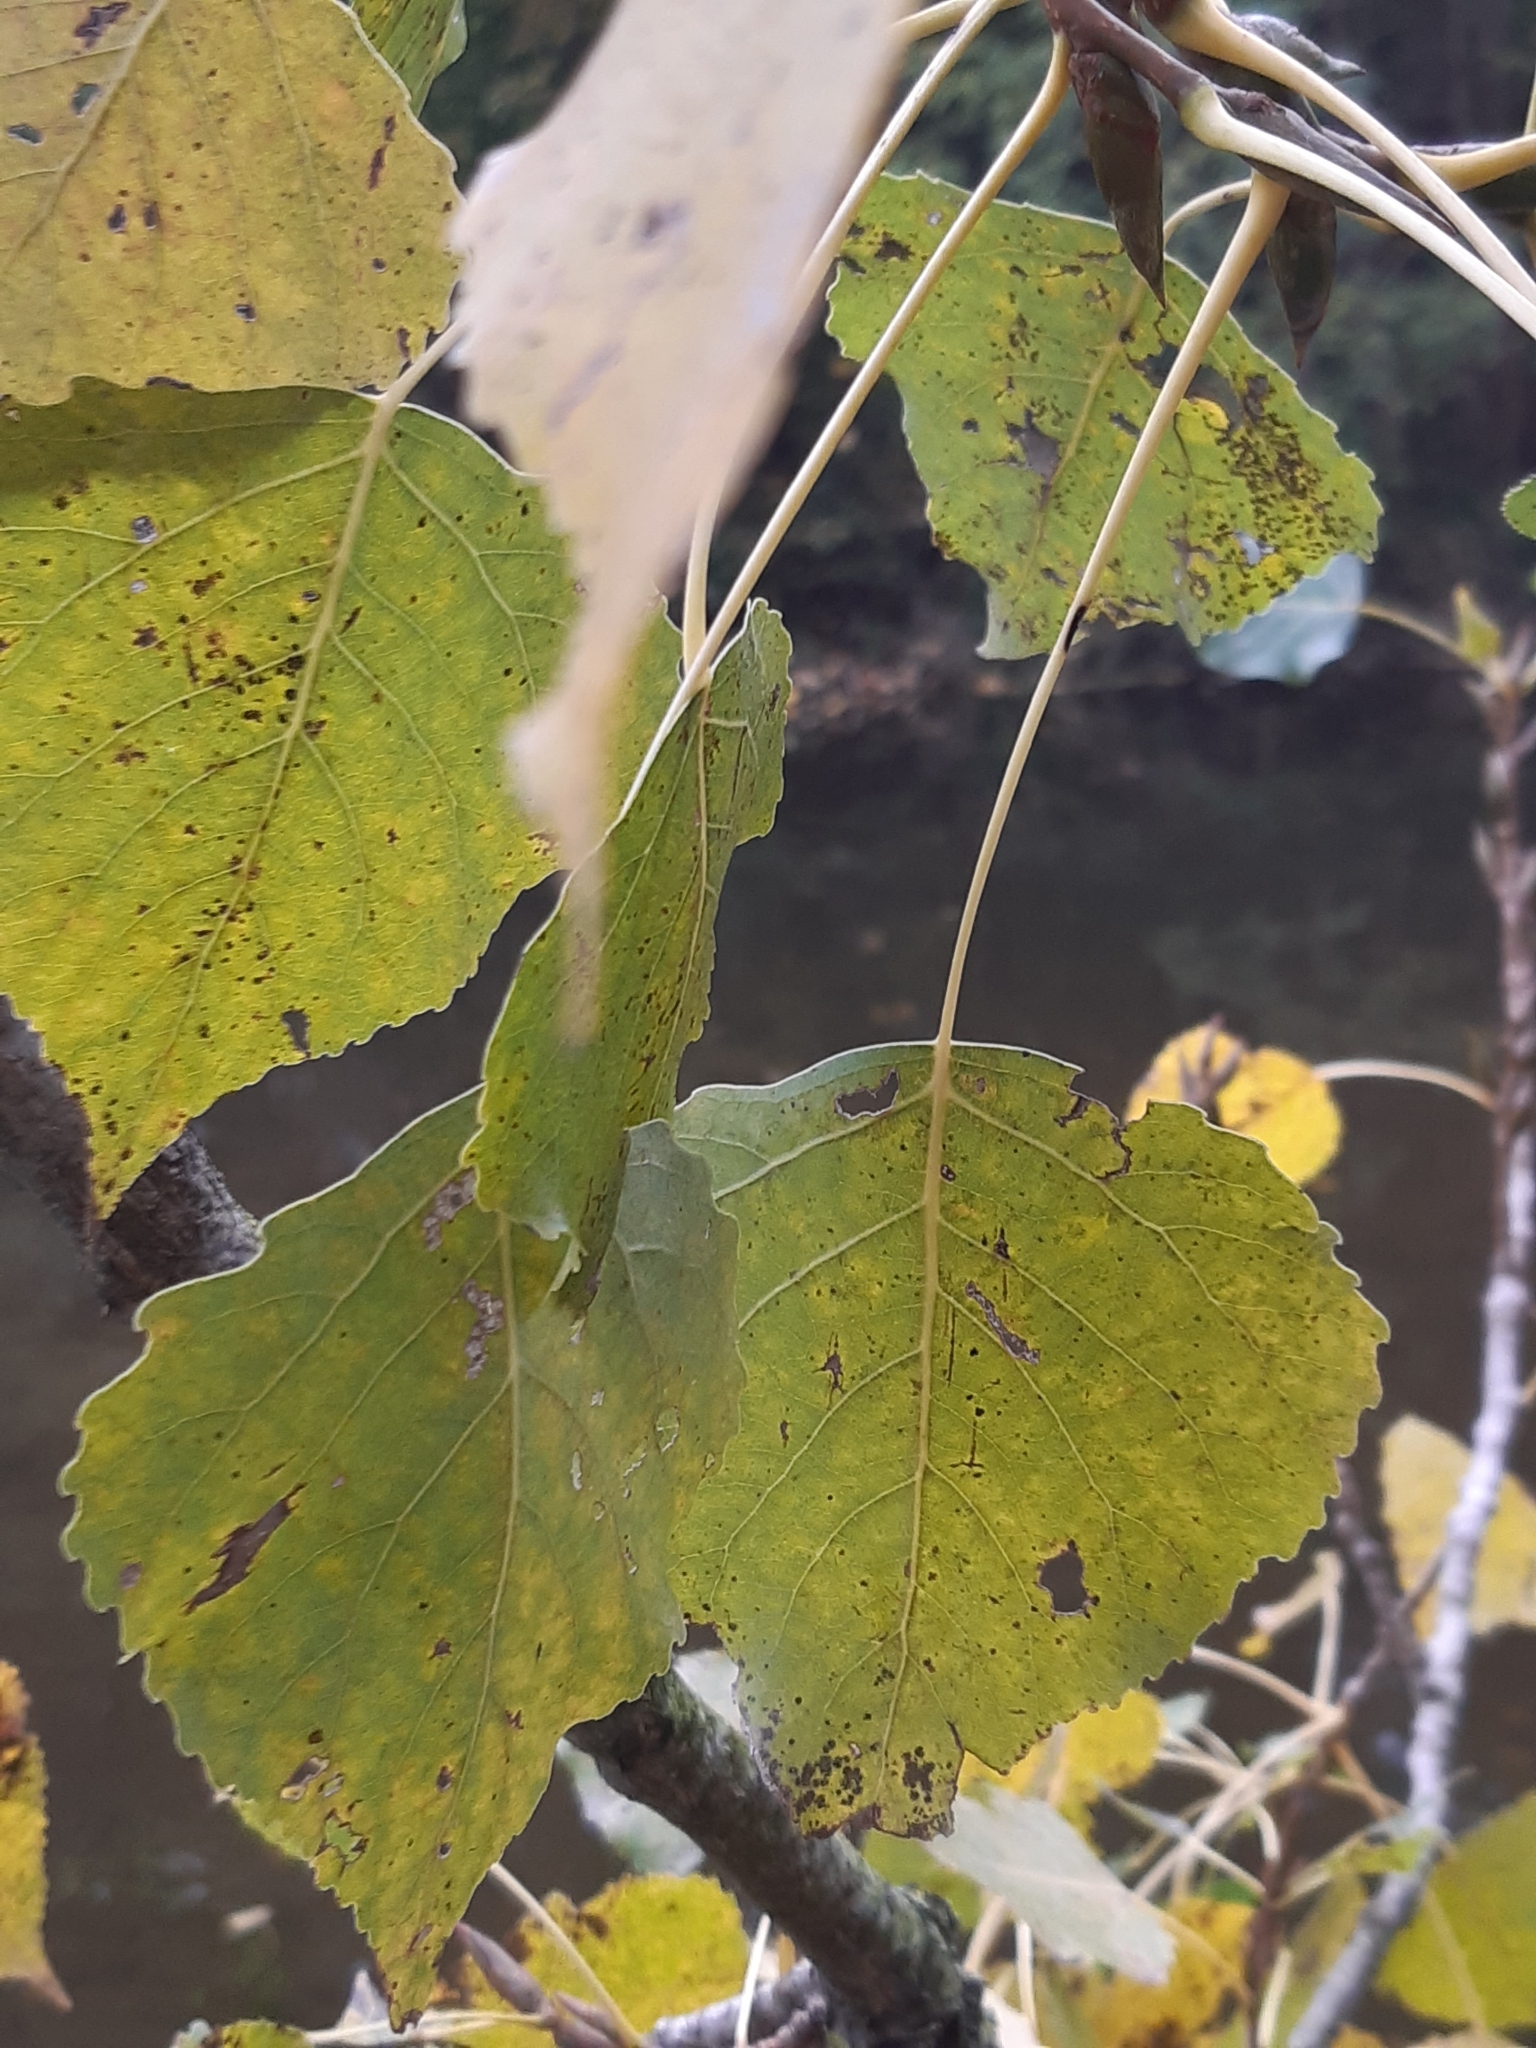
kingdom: Plantae
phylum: Tracheophyta
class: Magnoliopsida
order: Malpighiales
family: Salicaceae
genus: Populus
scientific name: Populus nigra
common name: Black poplar
